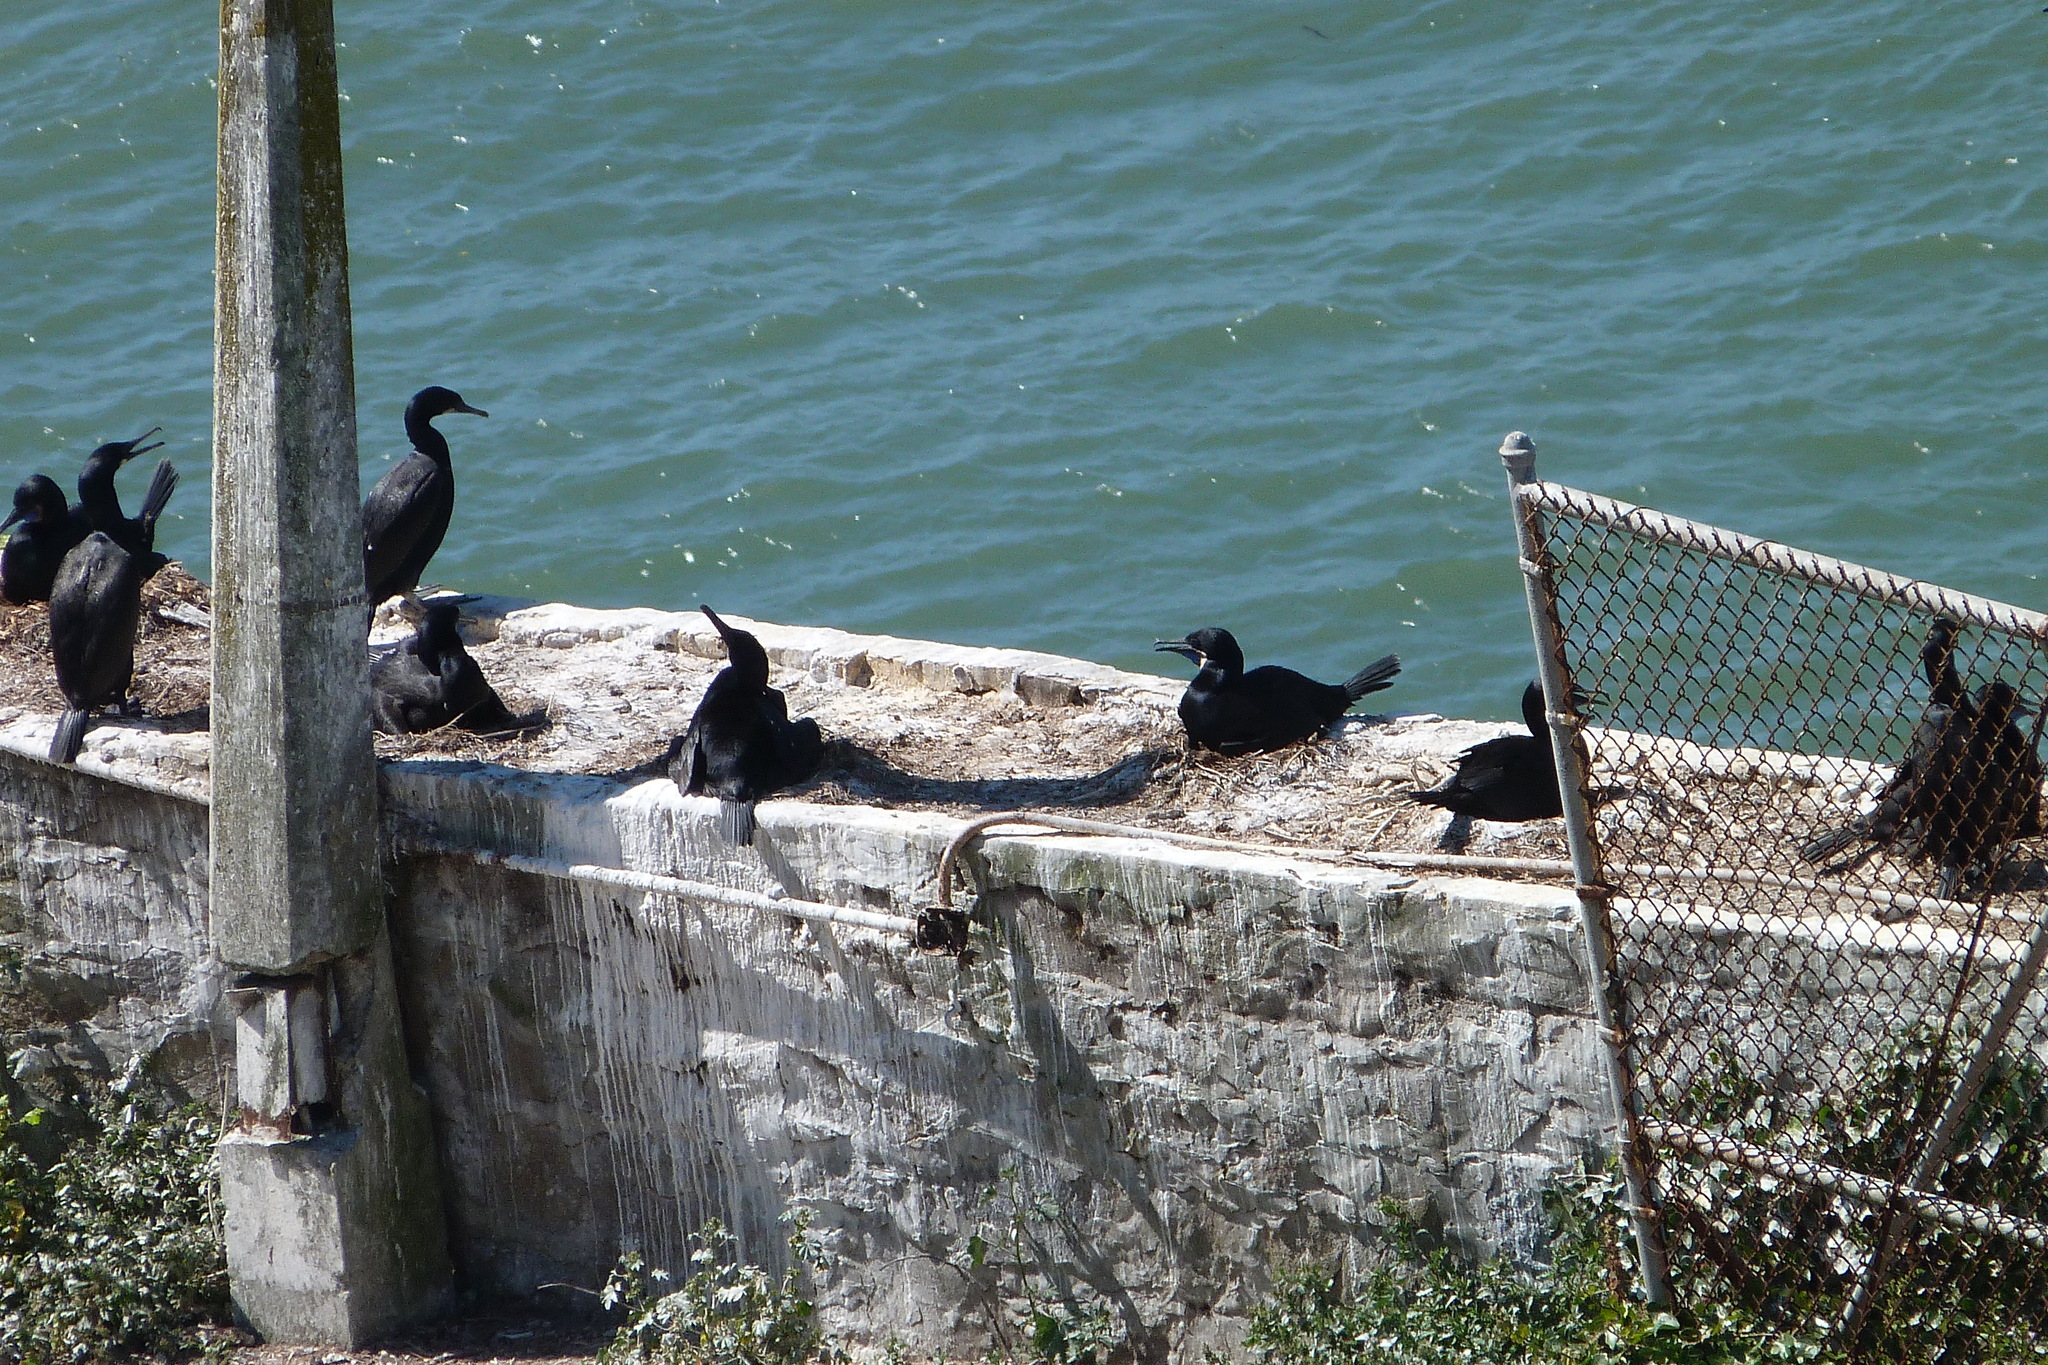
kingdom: Animalia
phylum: Chordata
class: Aves
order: Suliformes
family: Phalacrocoracidae
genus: Urile
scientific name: Urile penicillatus
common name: Brandt's cormorant
